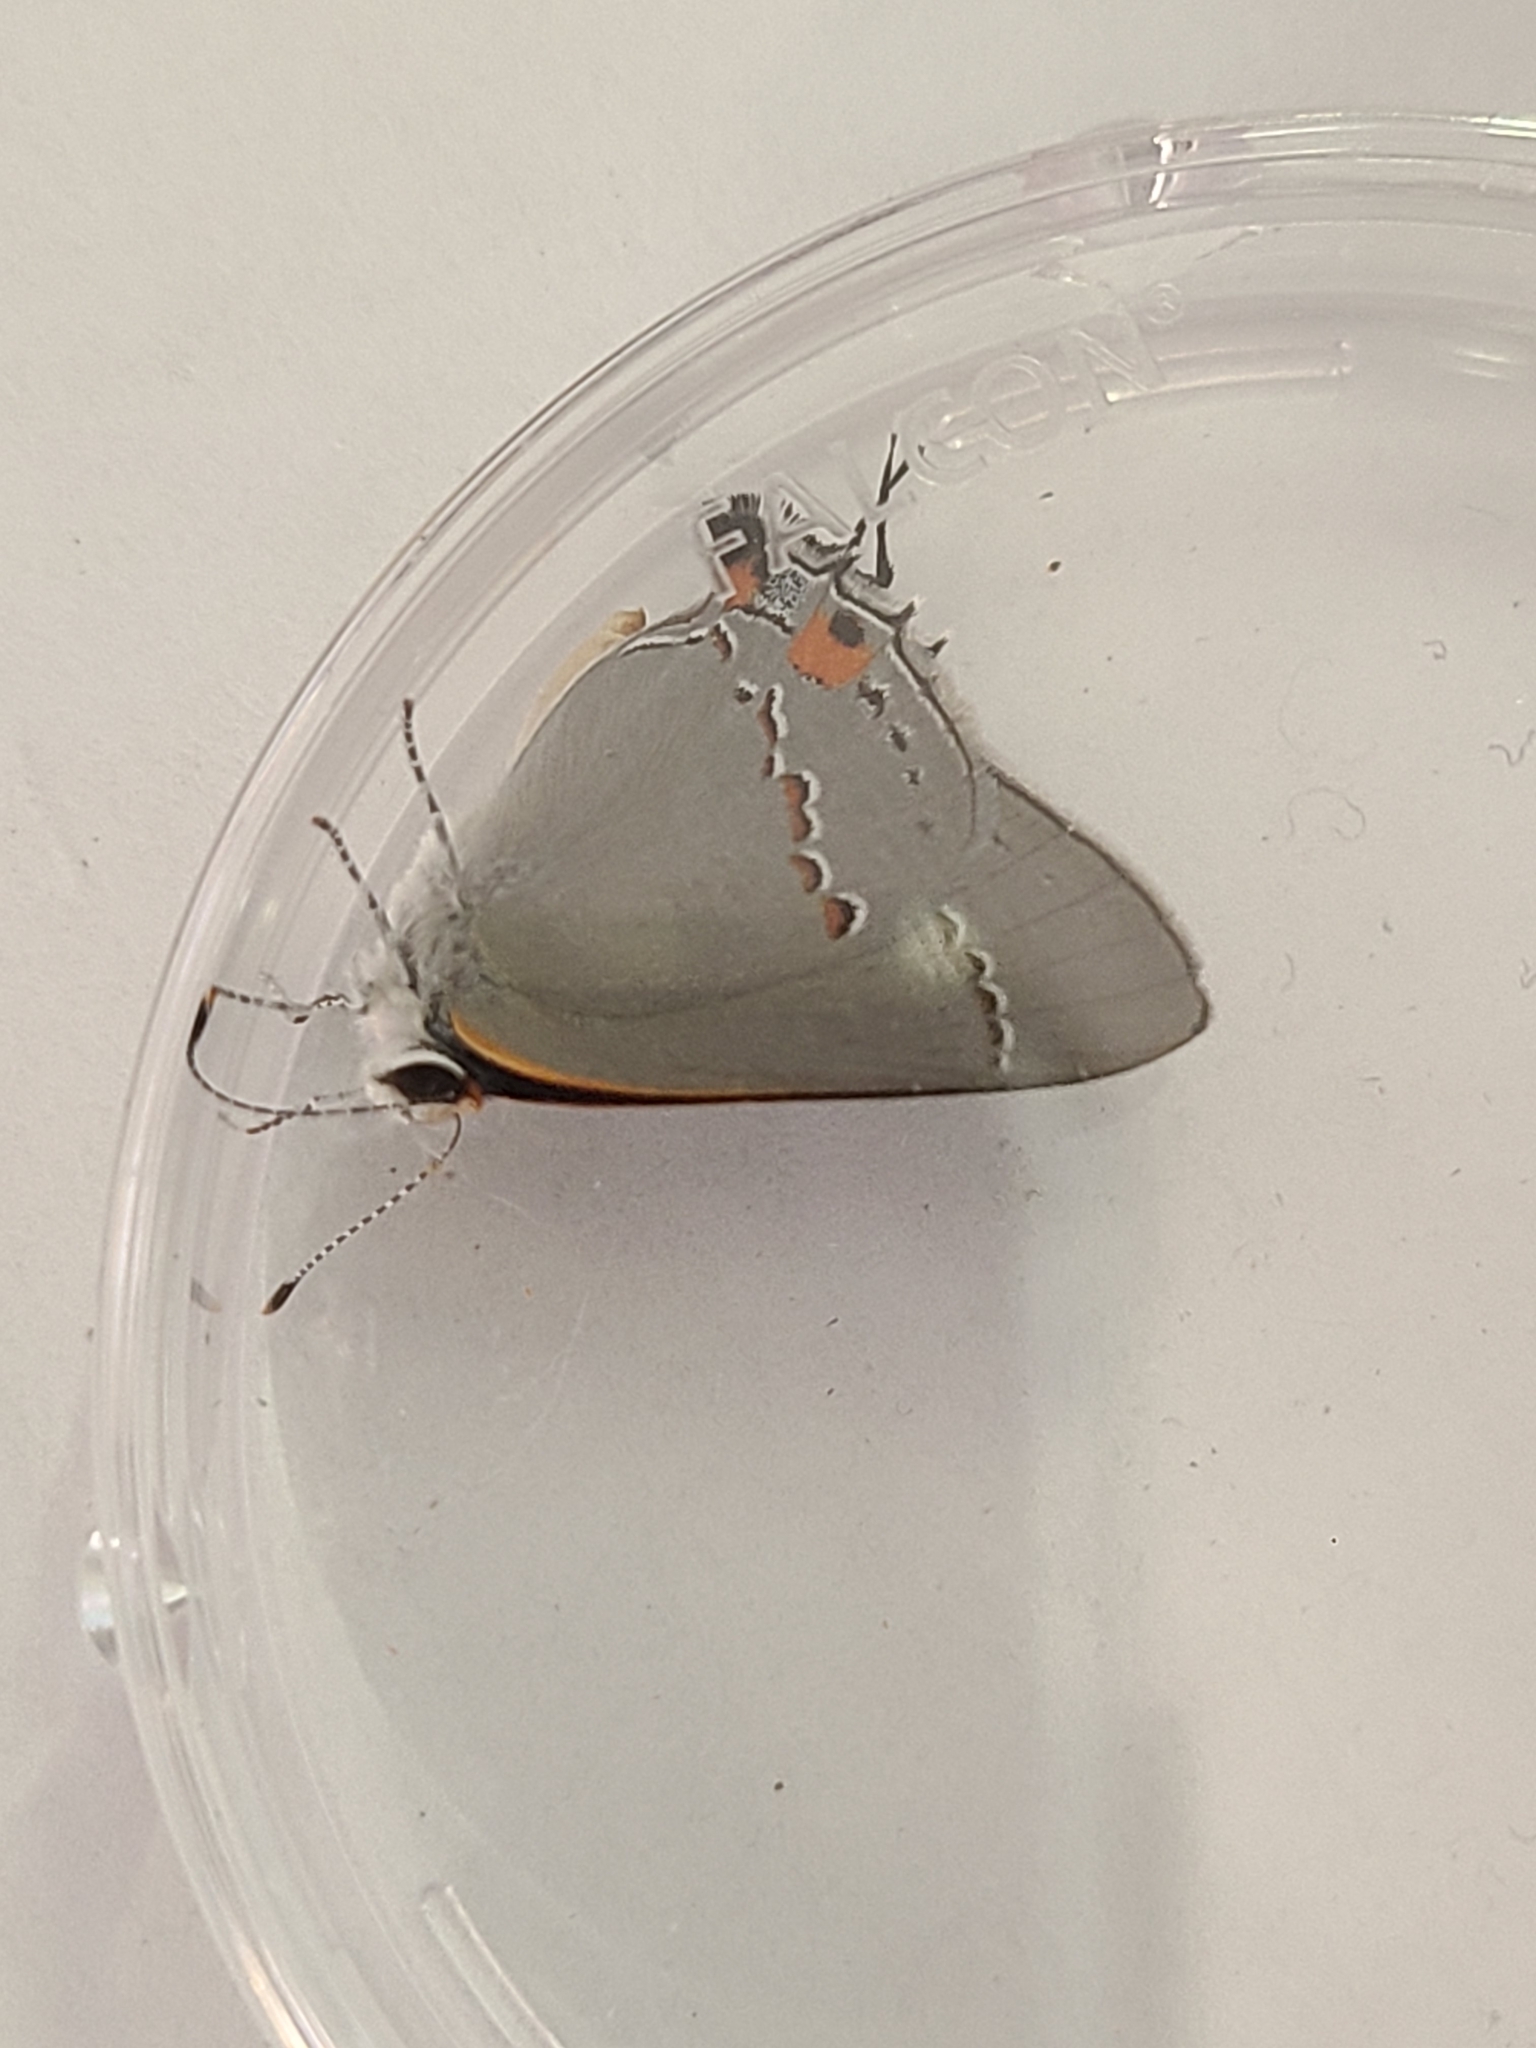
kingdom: Animalia
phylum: Arthropoda
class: Insecta
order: Lepidoptera
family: Lycaenidae
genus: Strymon
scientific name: Strymon melinus
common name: Gray hairstreak
